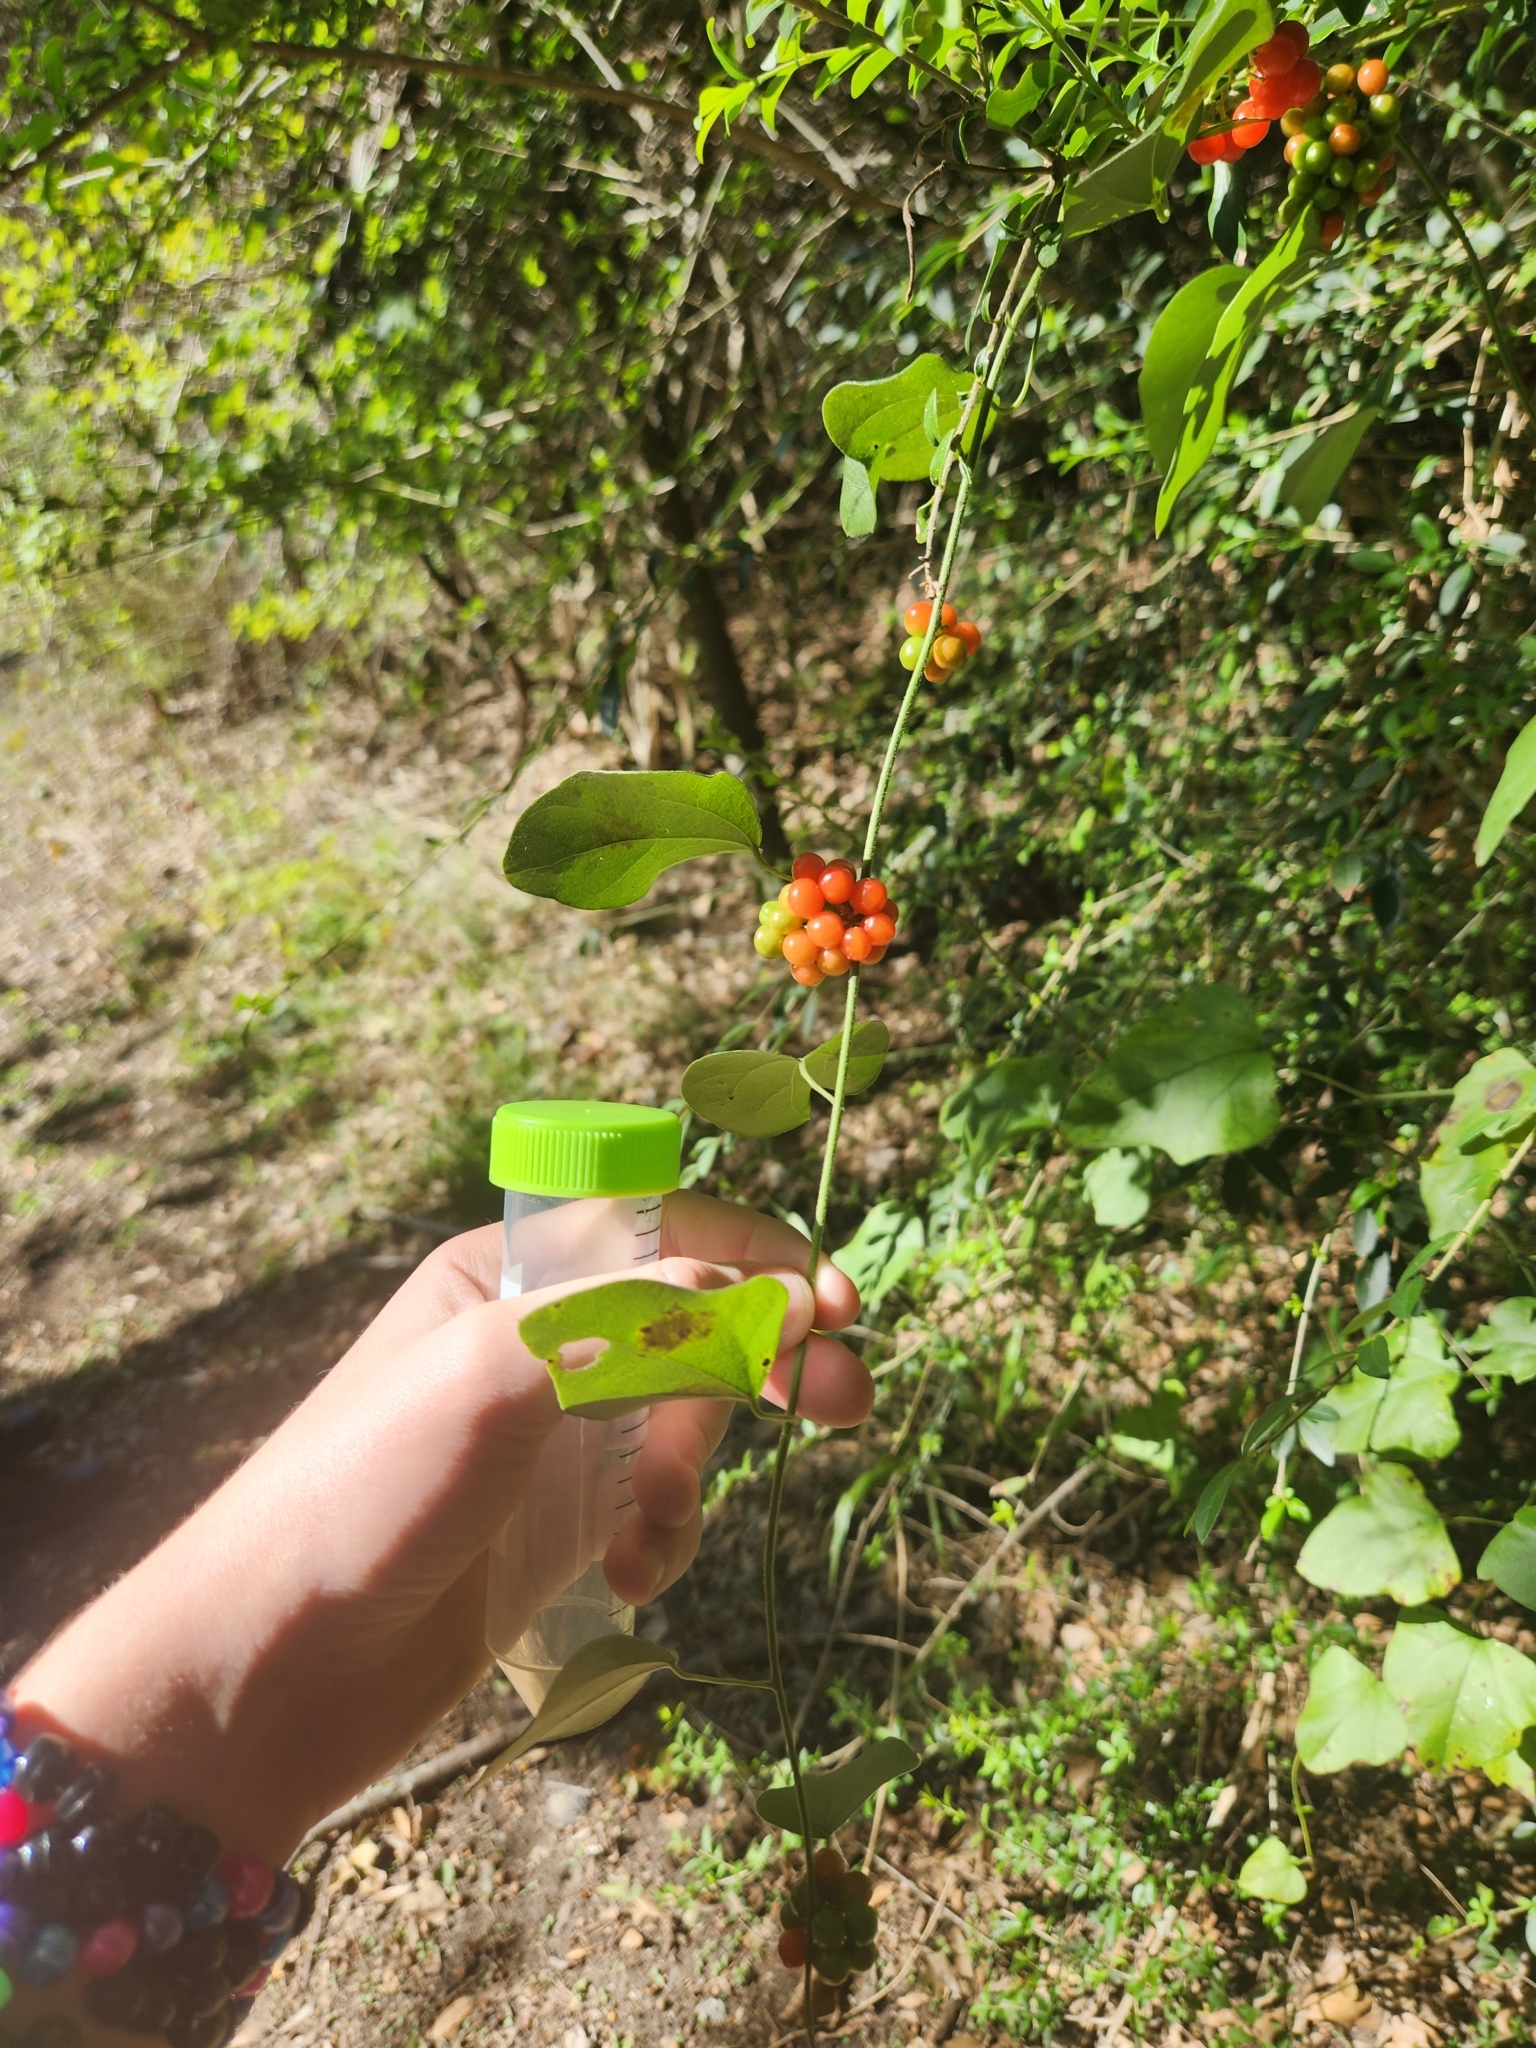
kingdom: Plantae
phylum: Tracheophyta
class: Magnoliopsida
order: Ranunculales
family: Menispermaceae
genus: Cocculus
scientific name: Cocculus carolinus
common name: Carolina moonseed
